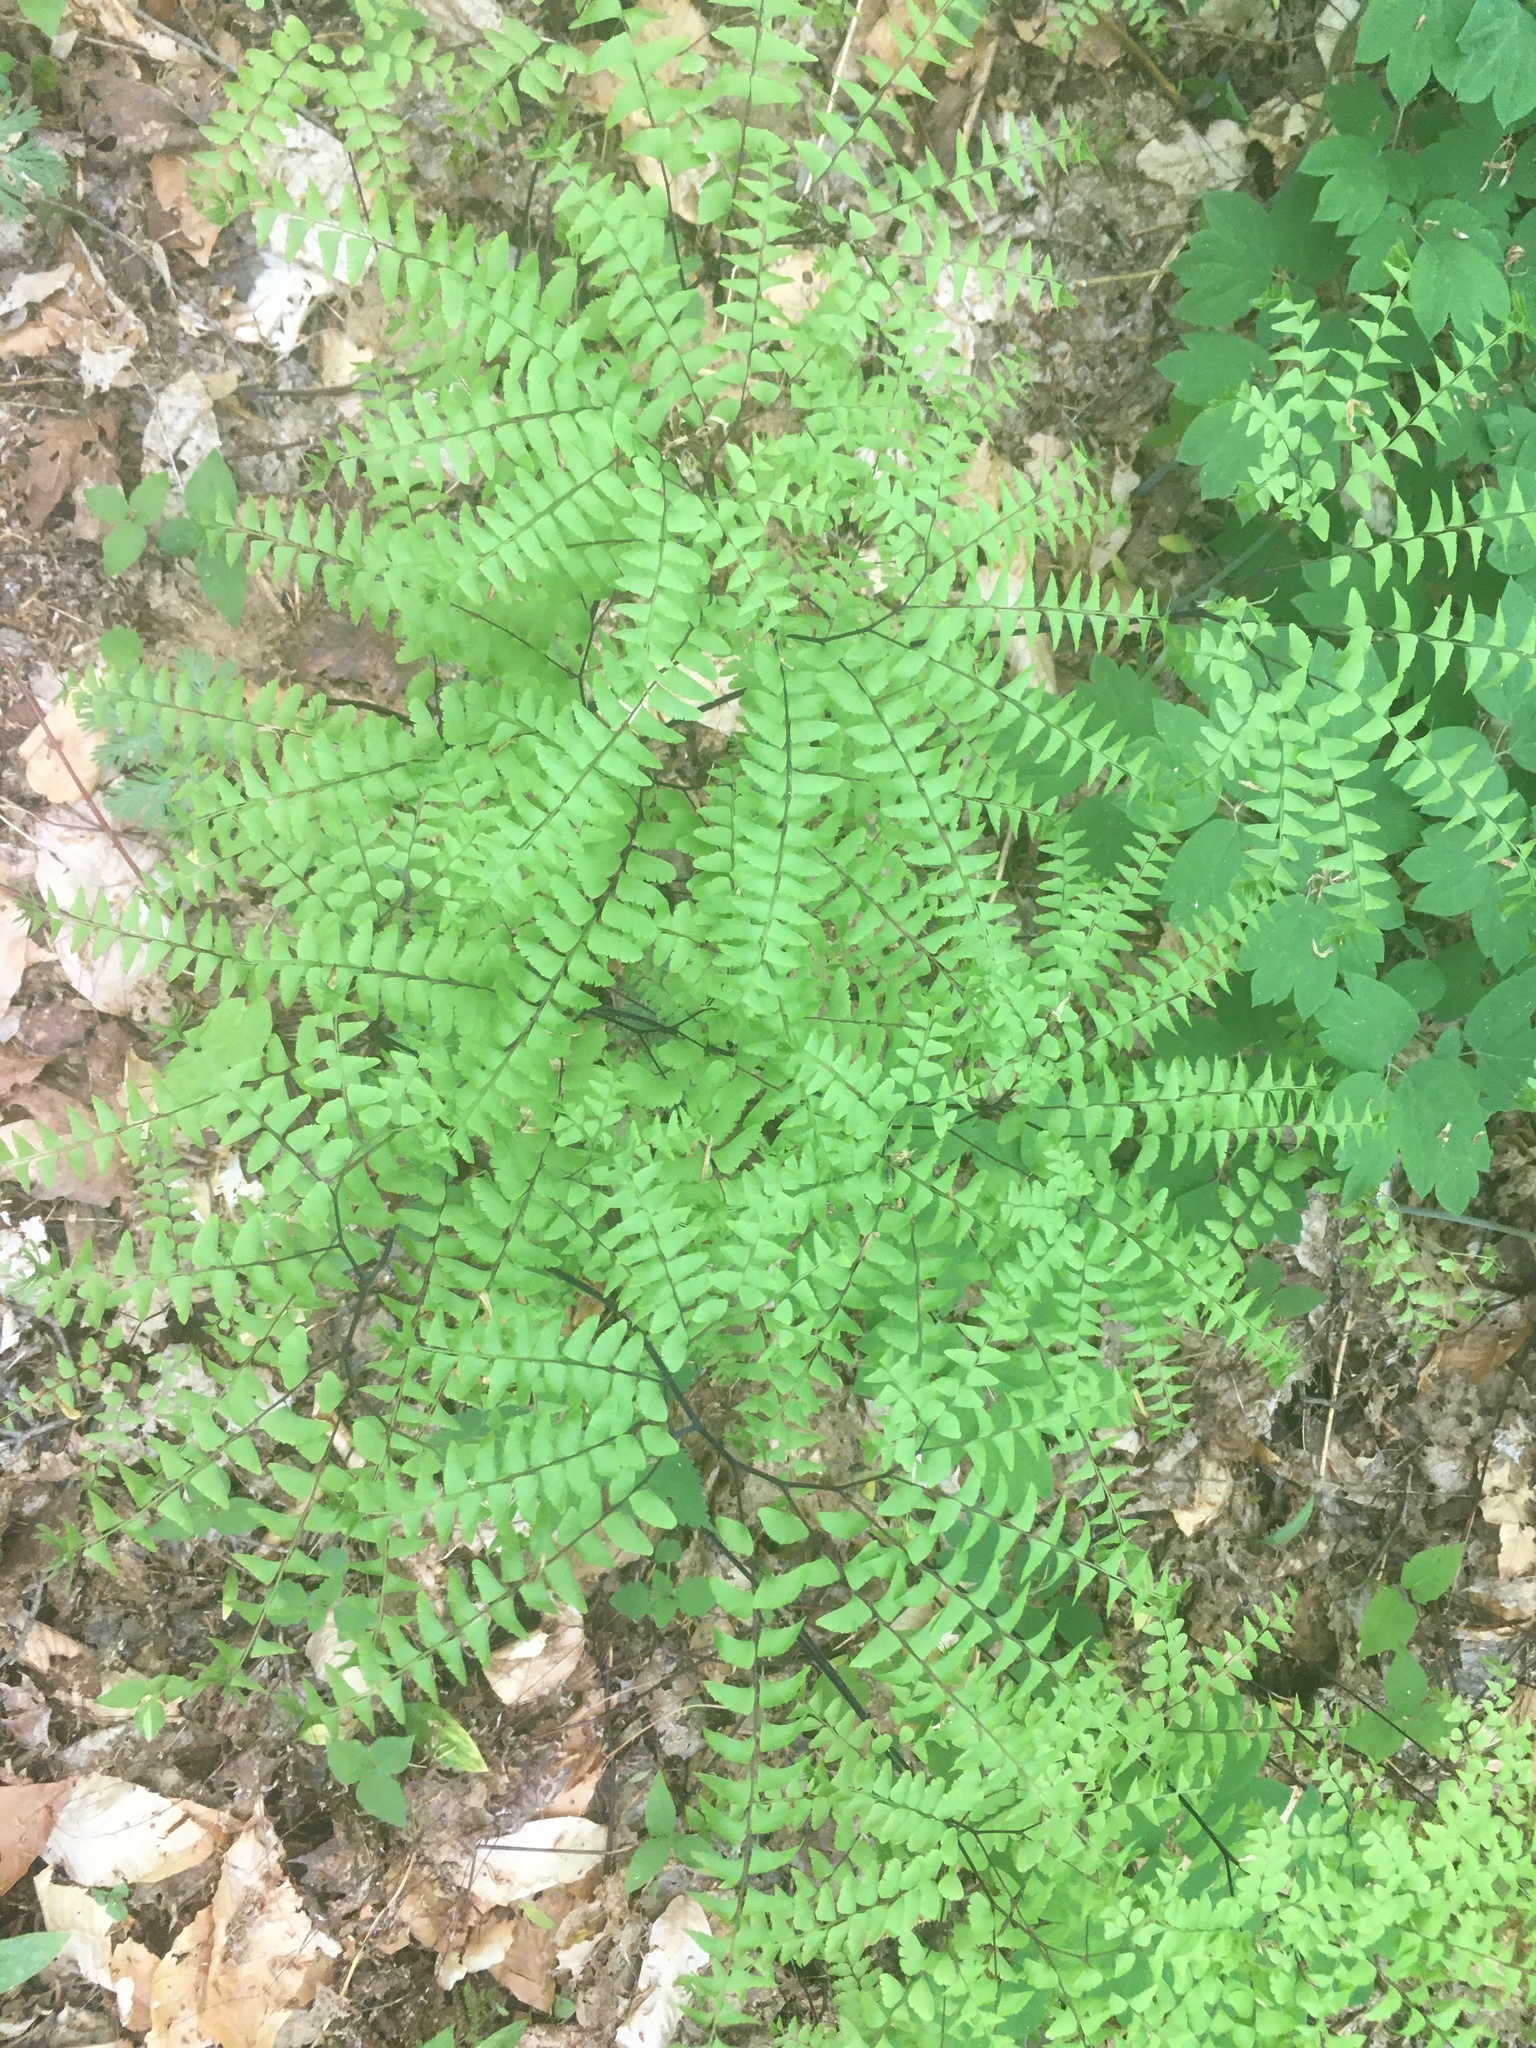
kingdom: Plantae
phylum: Tracheophyta
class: Polypodiopsida
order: Polypodiales
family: Pteridaceae
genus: Adiantum
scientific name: Adiantum pedatum
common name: Five-finger fern
